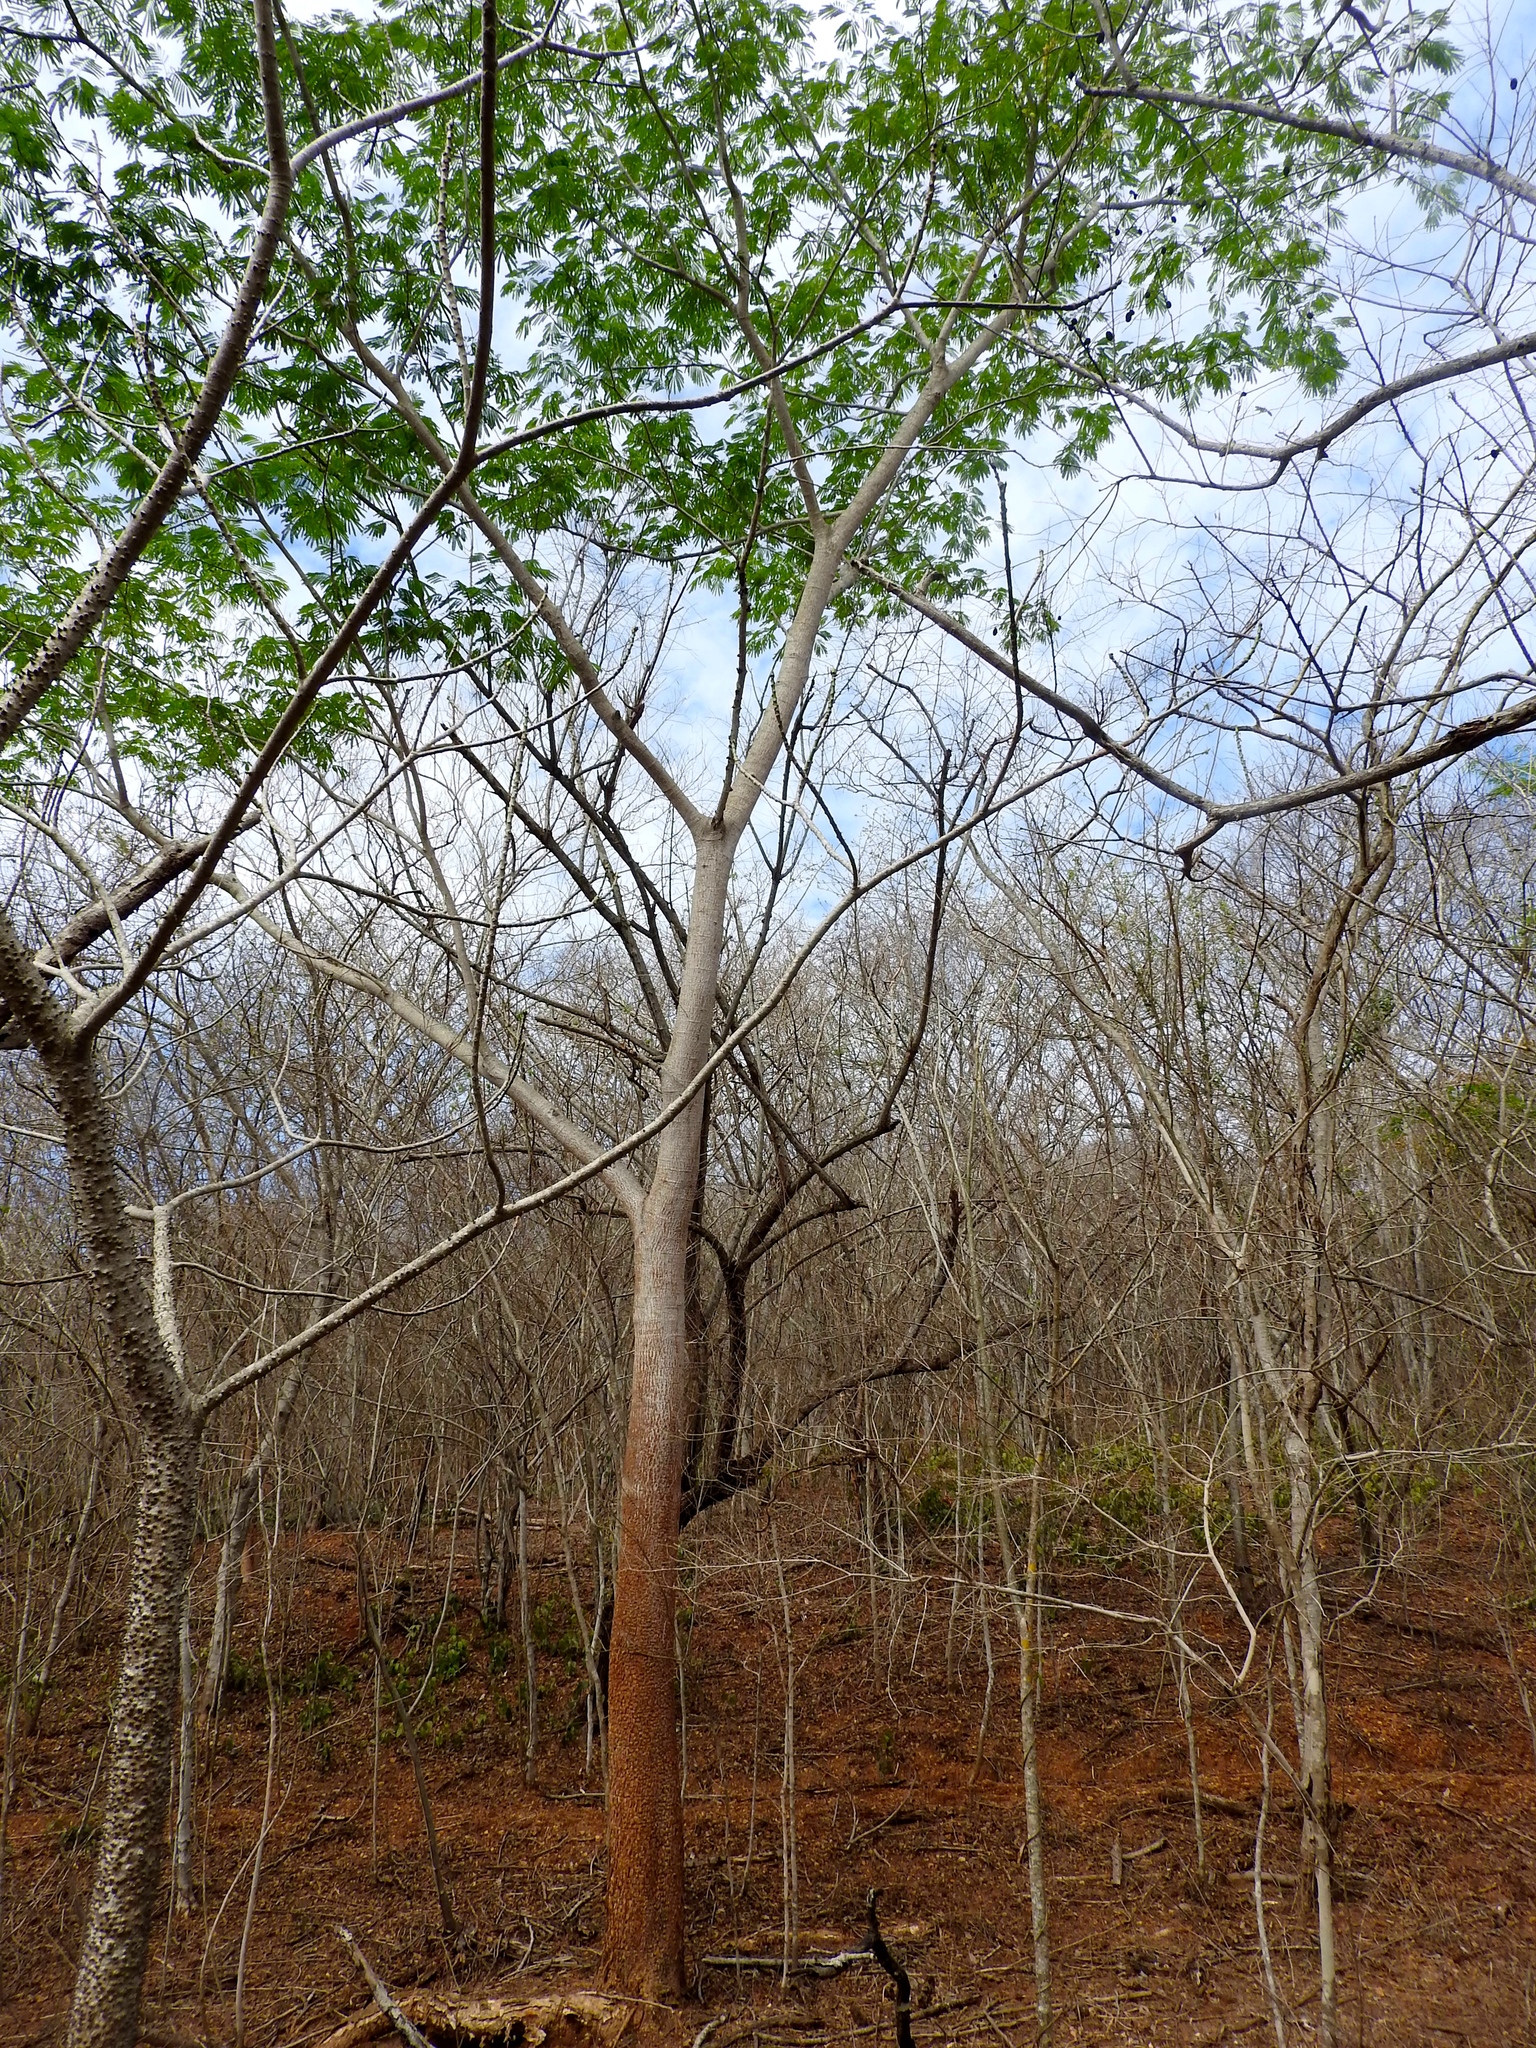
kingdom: Plantae
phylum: Tracheophyta
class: Magnoliopsida
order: Fabales
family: Fabaceae
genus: Enterolobium
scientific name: Enterolobium cyclocarpum
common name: Ear tree
